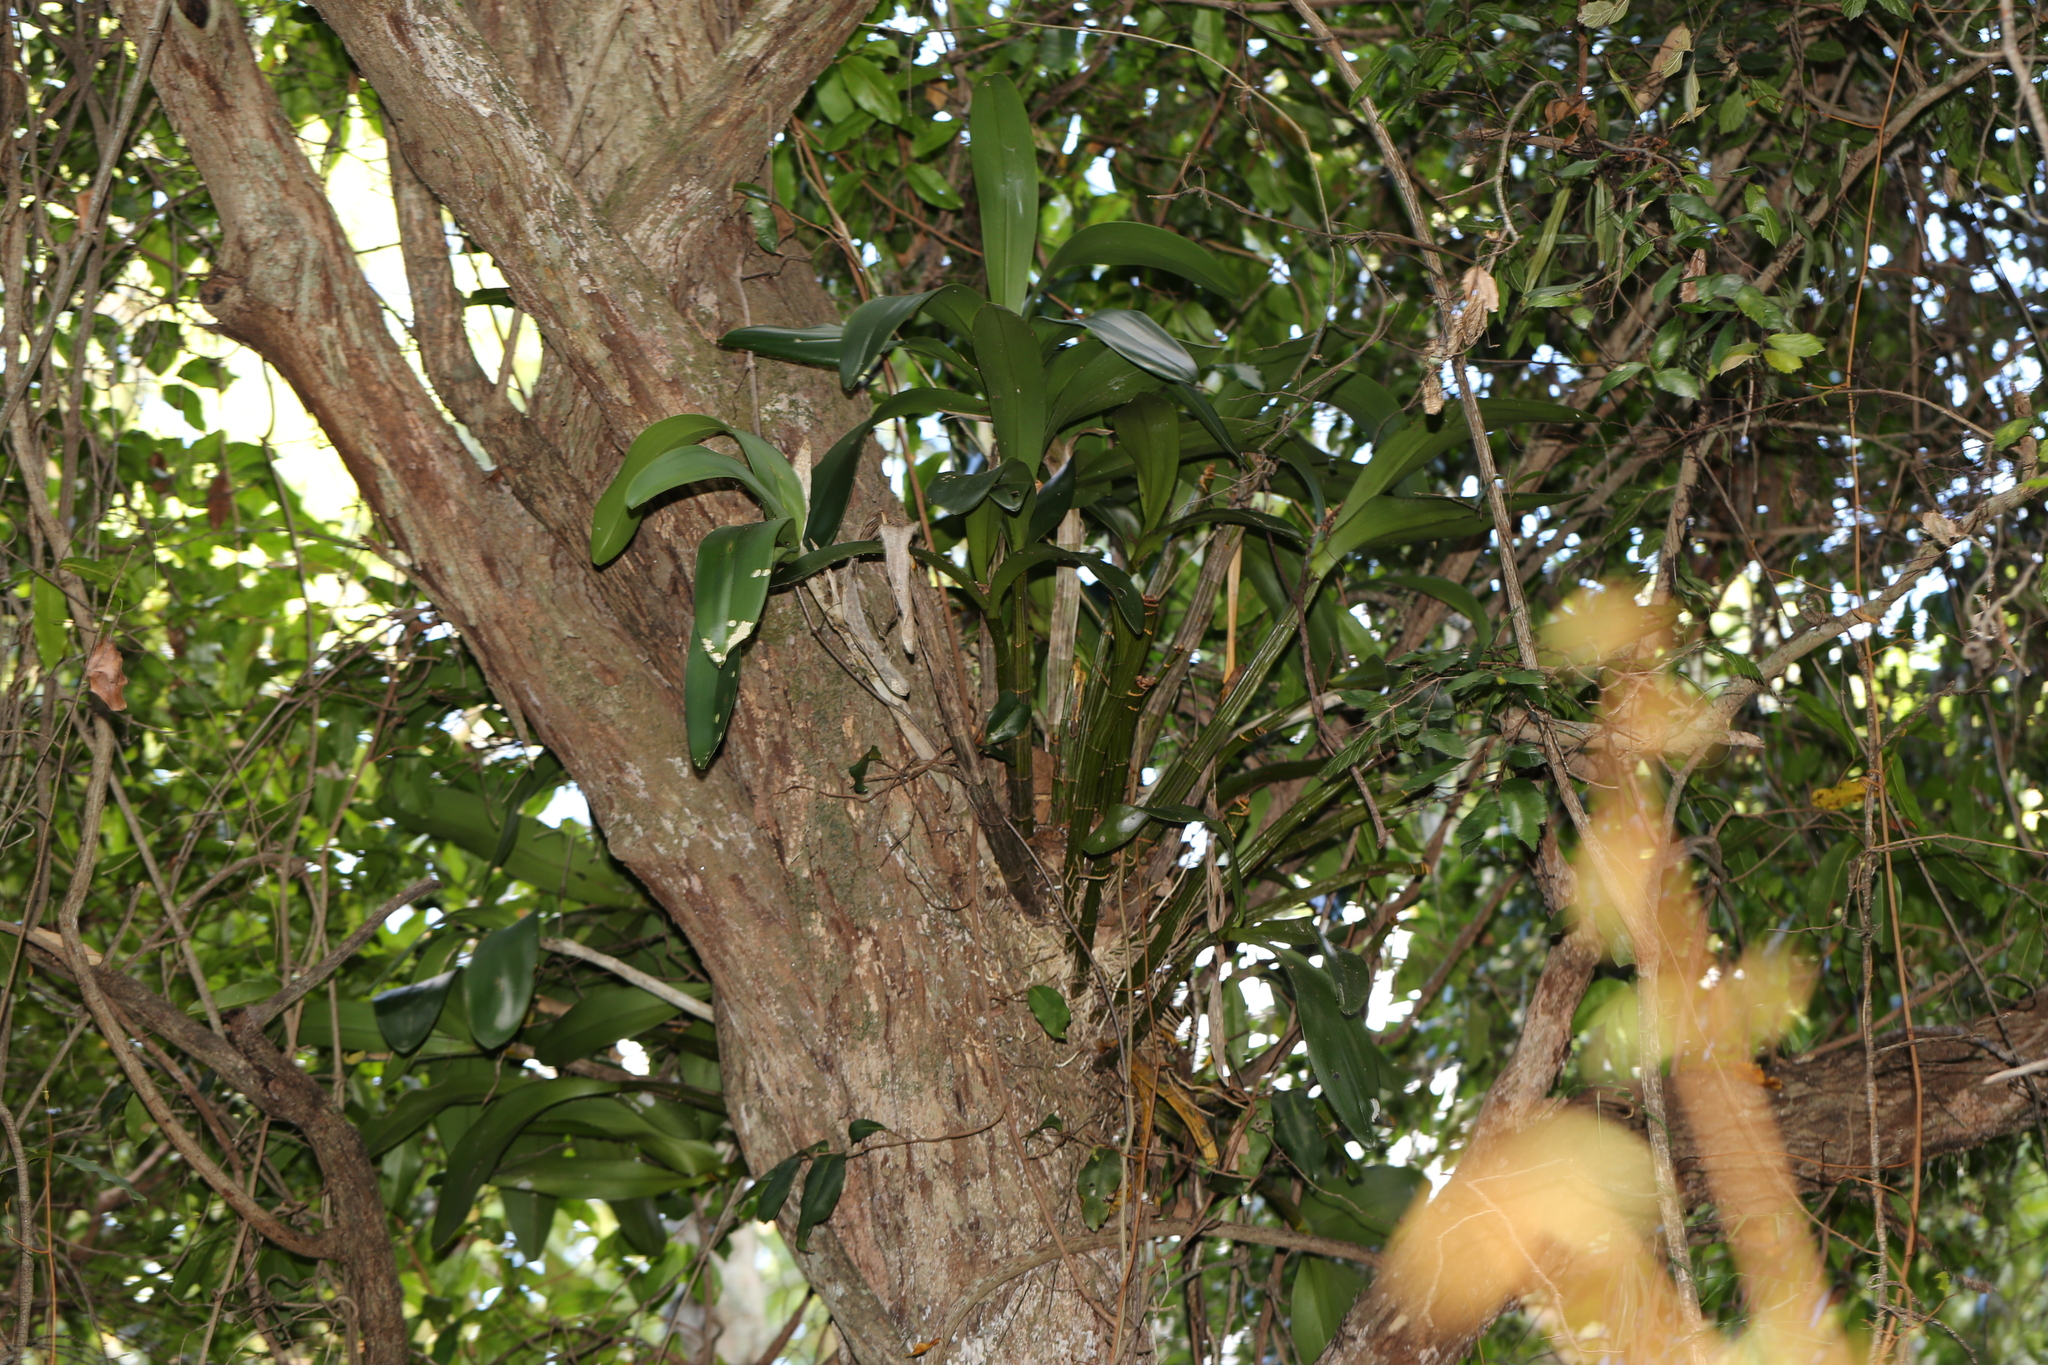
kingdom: Plantae
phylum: Tracheophyta
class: Liliopsida
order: Asparagales
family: Orchidaceae
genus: Dendrobium
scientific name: Dendrobium speciosum
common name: Rock-lily
